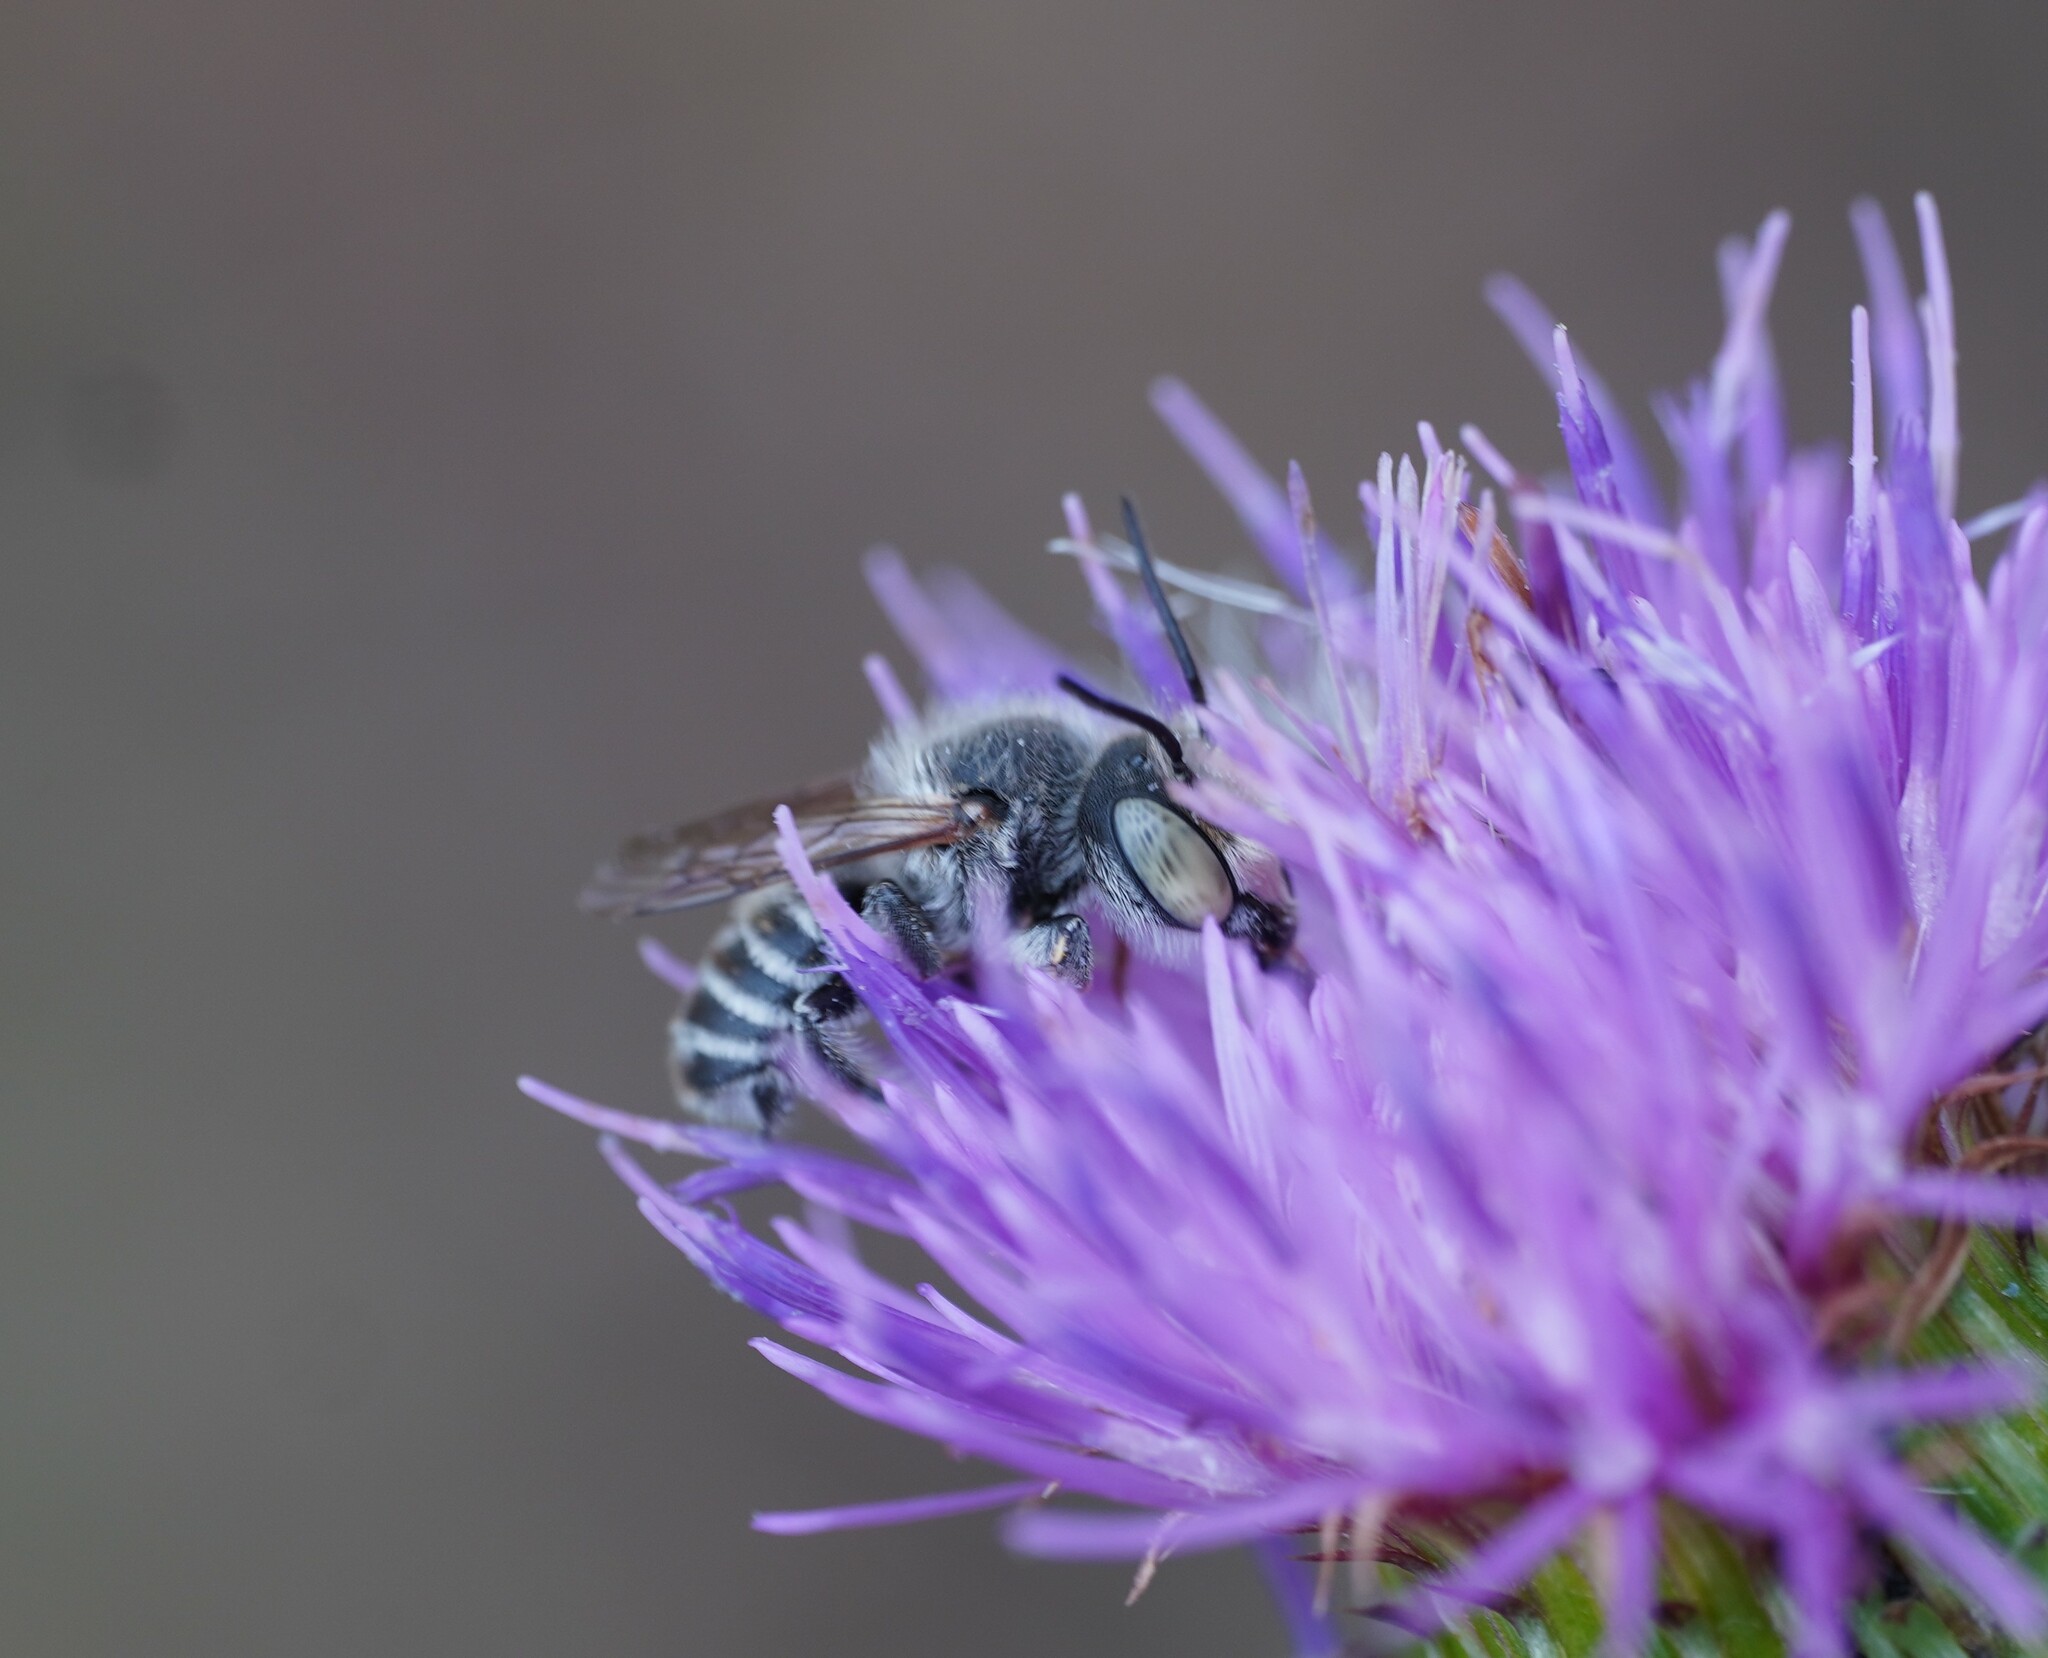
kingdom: Animalia
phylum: Arthropoda
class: Insecta
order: Hymenoptera
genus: Eutricharaea
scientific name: Eutricharaea
